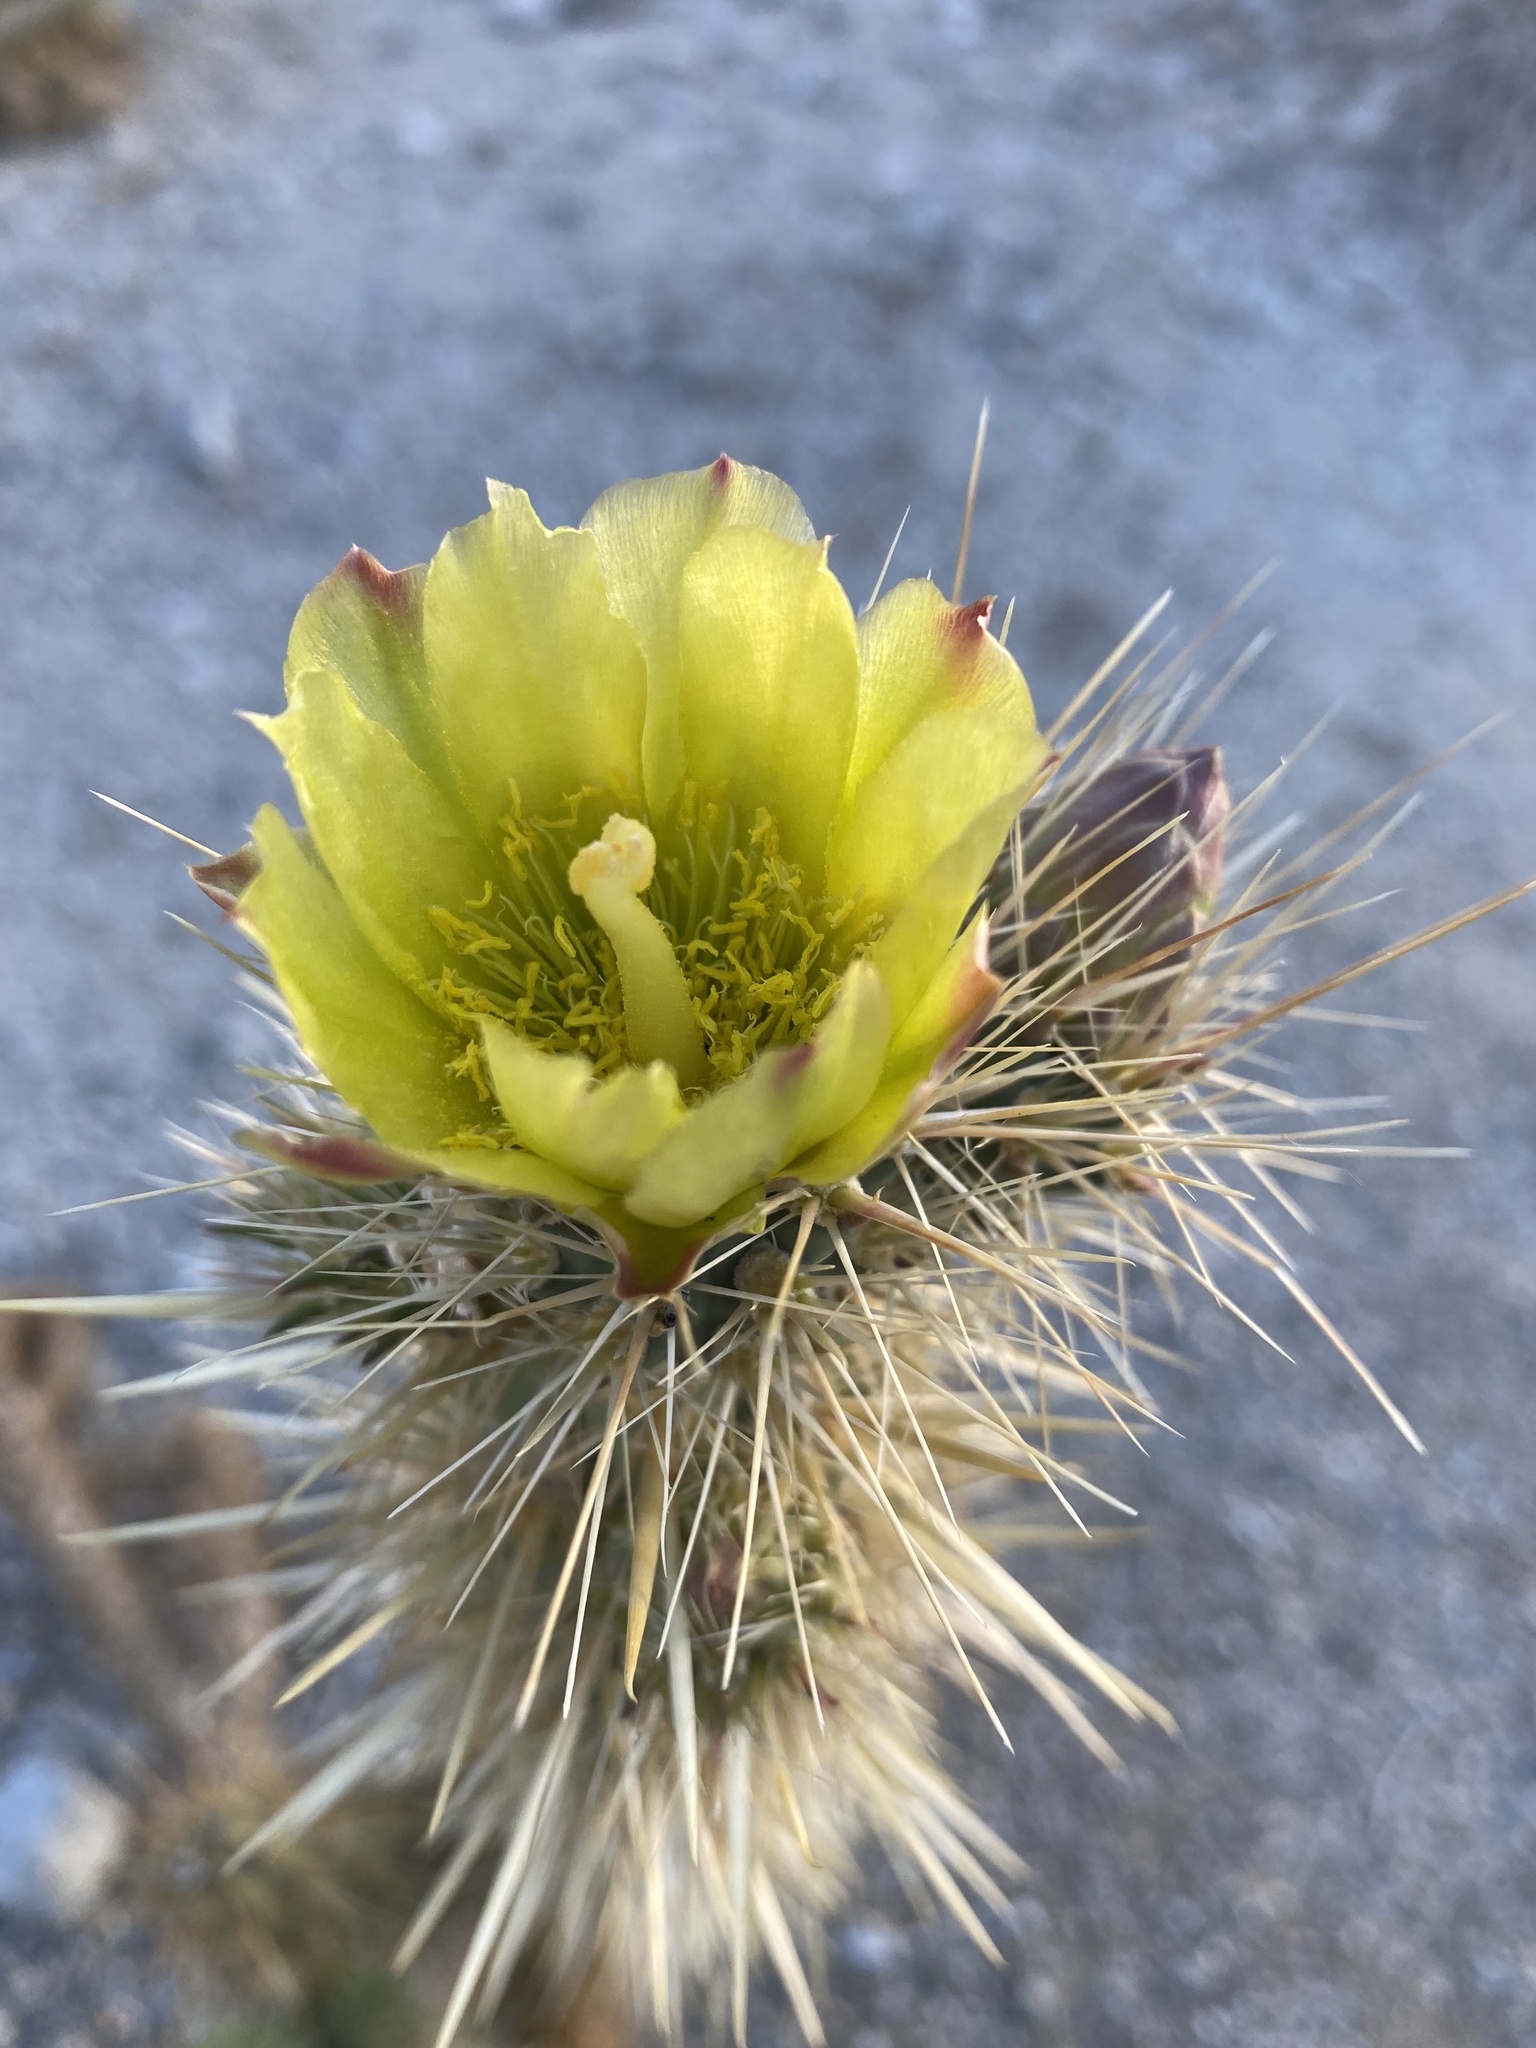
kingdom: Plantae
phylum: Tracheophyta
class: Magnoliopsida
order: Caryophyllales
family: Cactaceae
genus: Cylindropuntia
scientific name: Cylindropuntia ganderi
